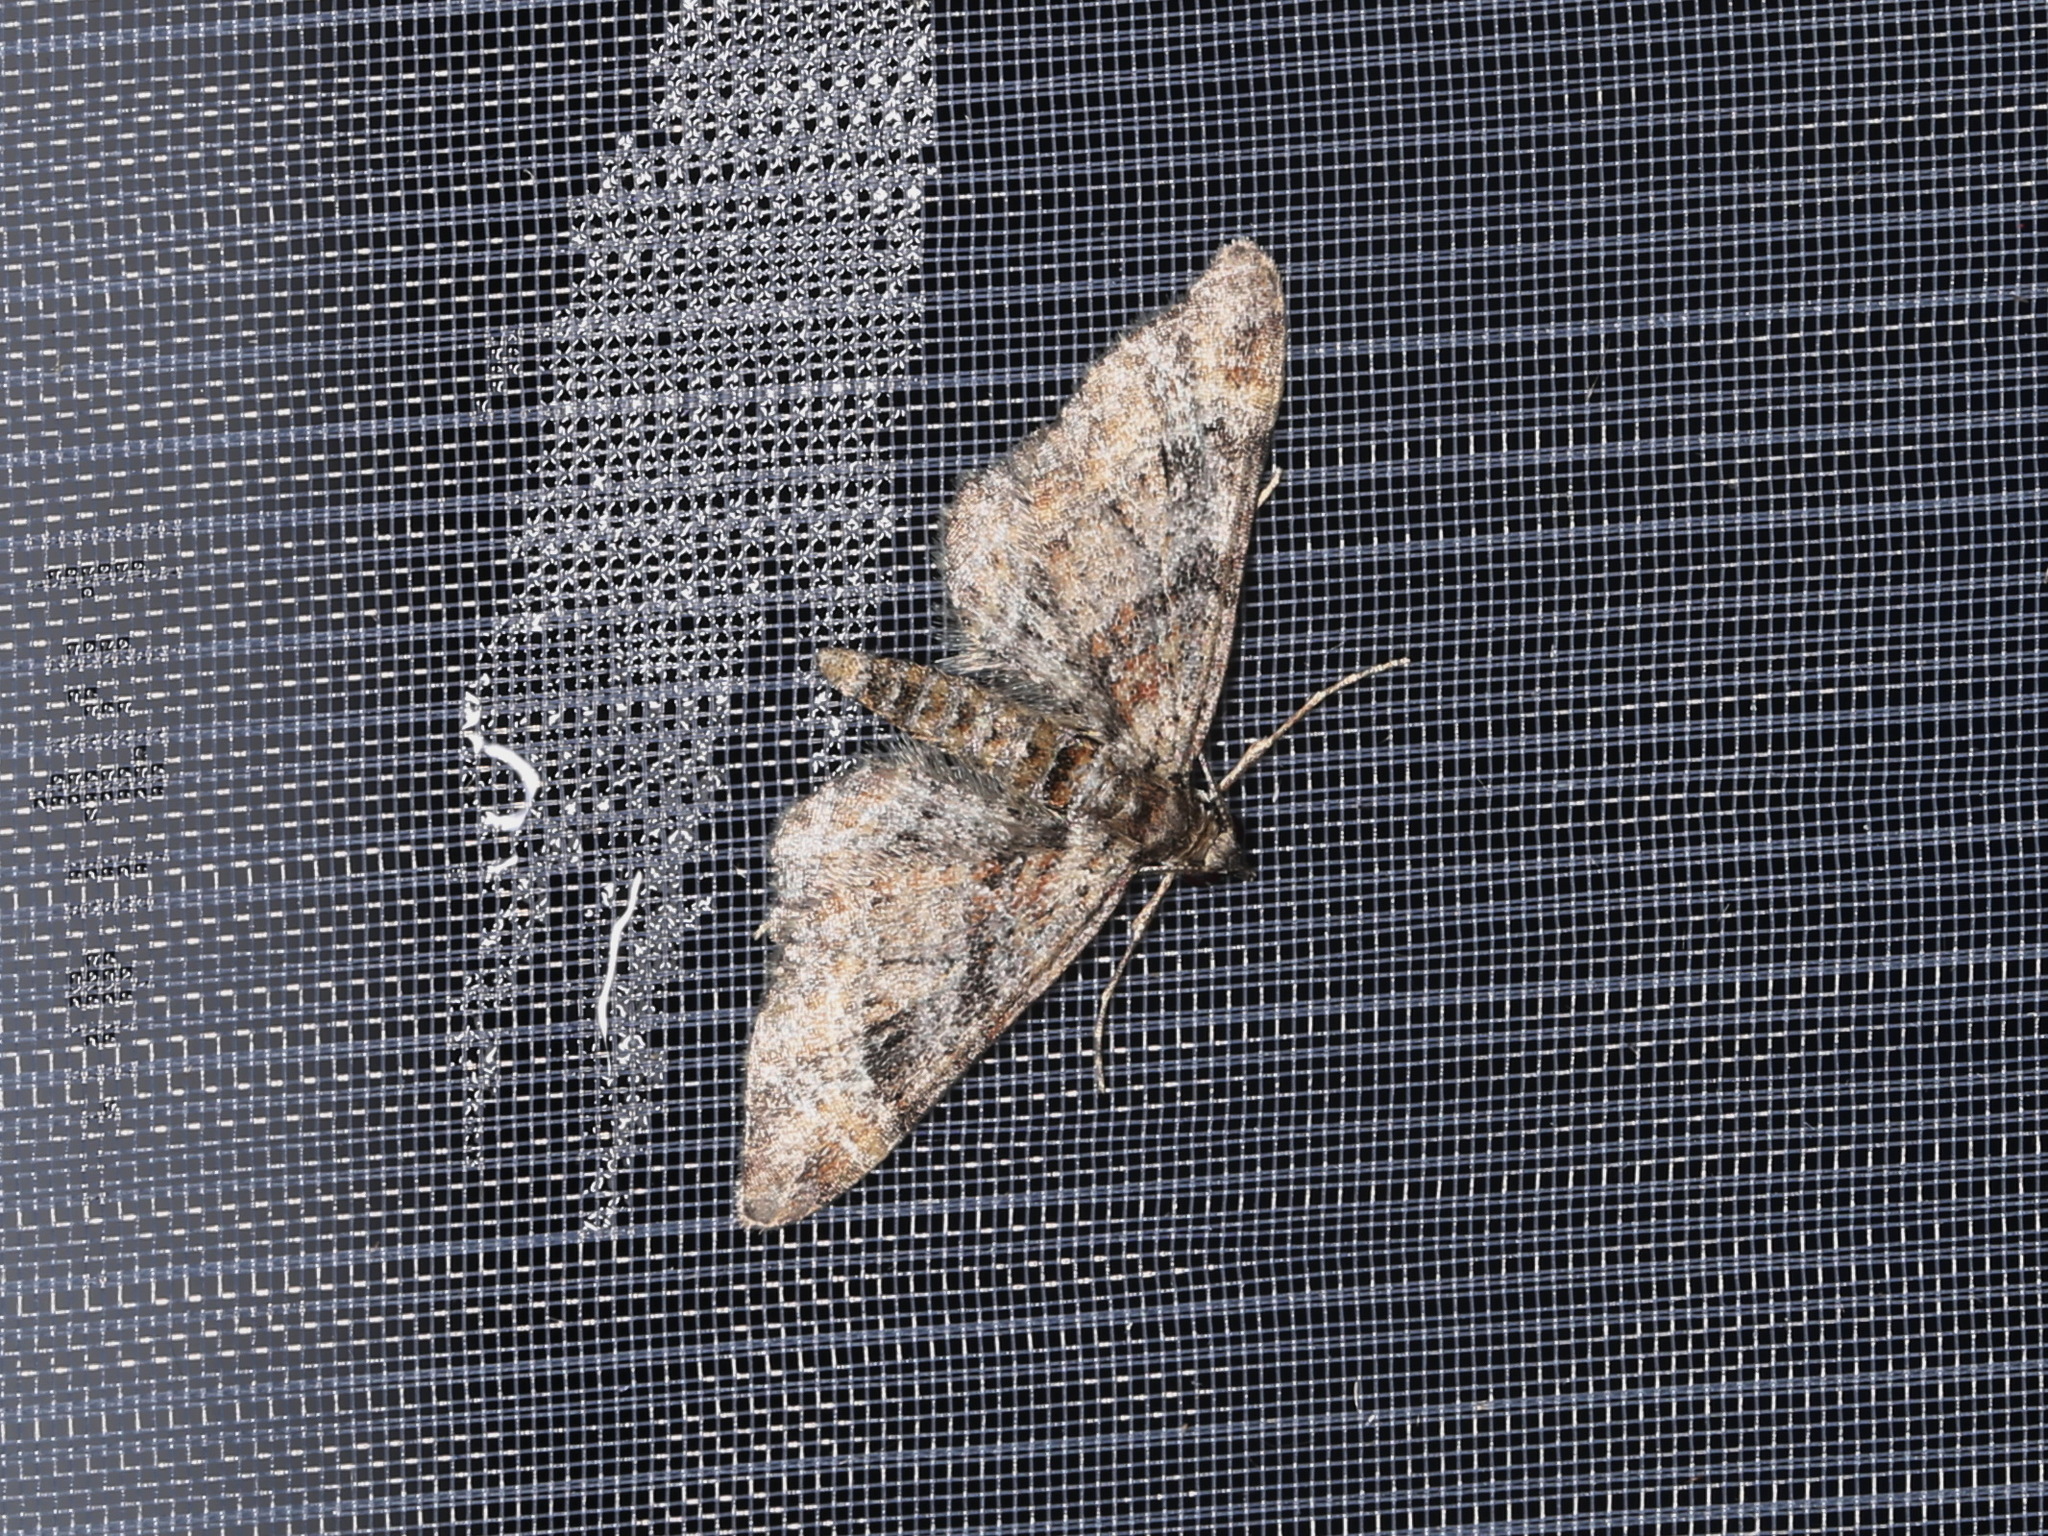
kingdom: Animalia
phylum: Arthropoda
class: Insecta
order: Lepidoptera
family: Geometridae
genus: Gymnoscelis
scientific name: Gymnoscelis rufifasciata
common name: Double-striped pug
